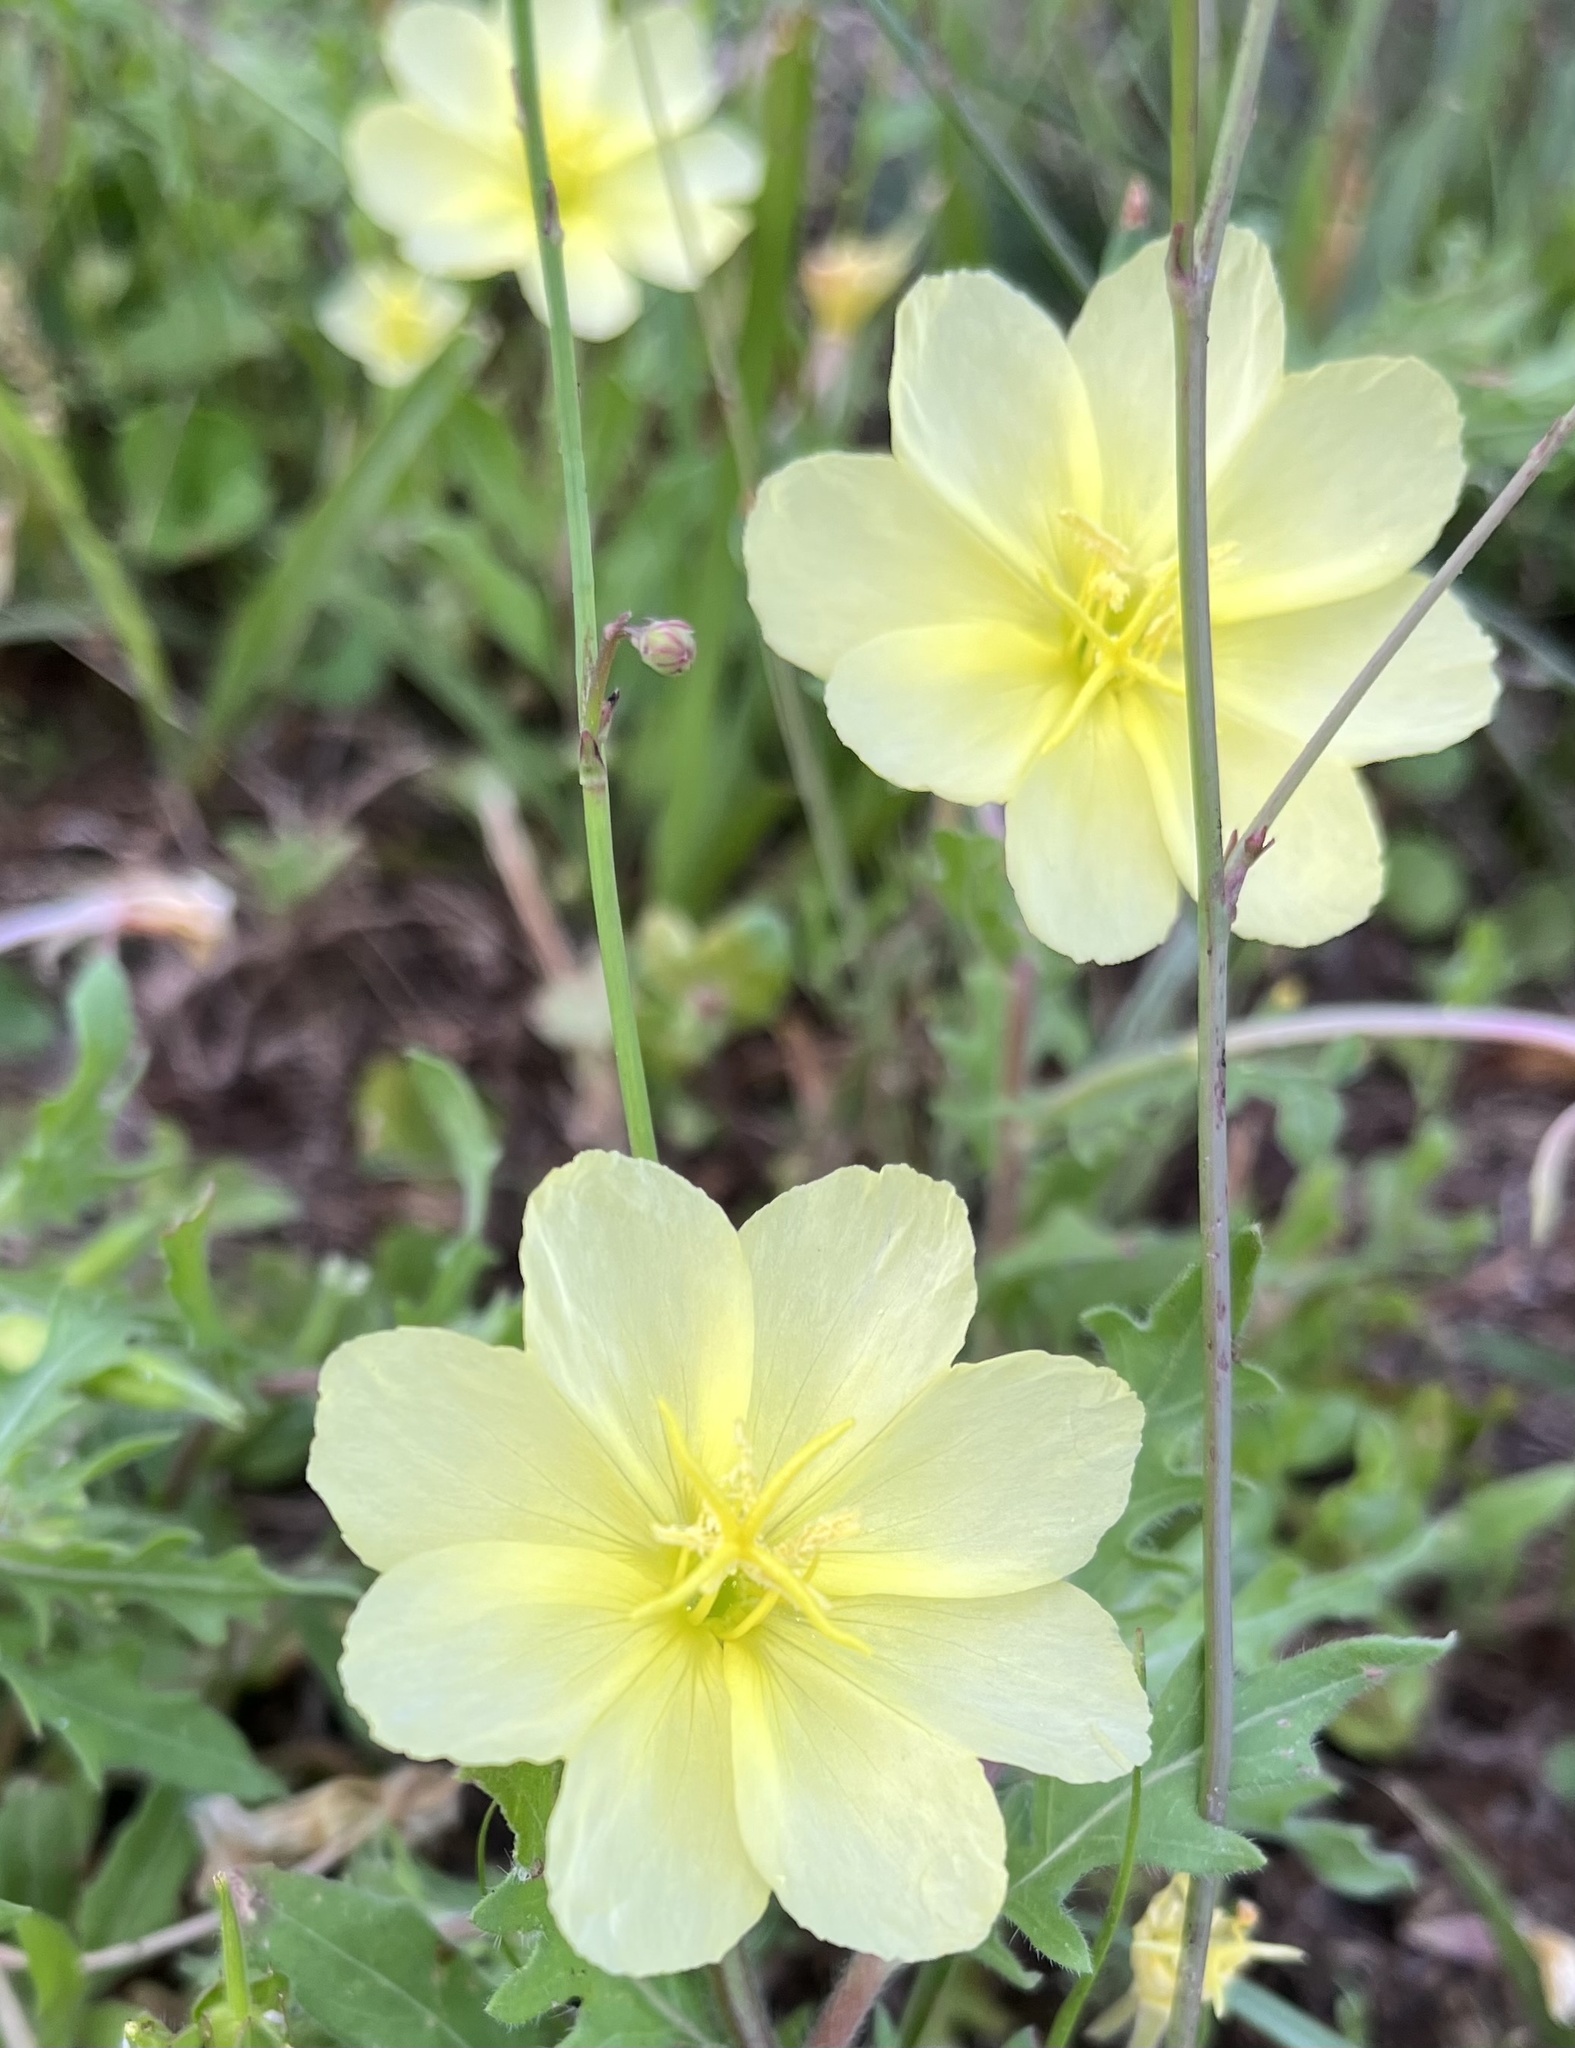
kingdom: Plantae
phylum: Tracheophyta
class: Magnoliopsida
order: Myrtales
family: Onagraceae
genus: Oenothera
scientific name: Oenothera laciniata
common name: Cut-leaved evening-primrose
